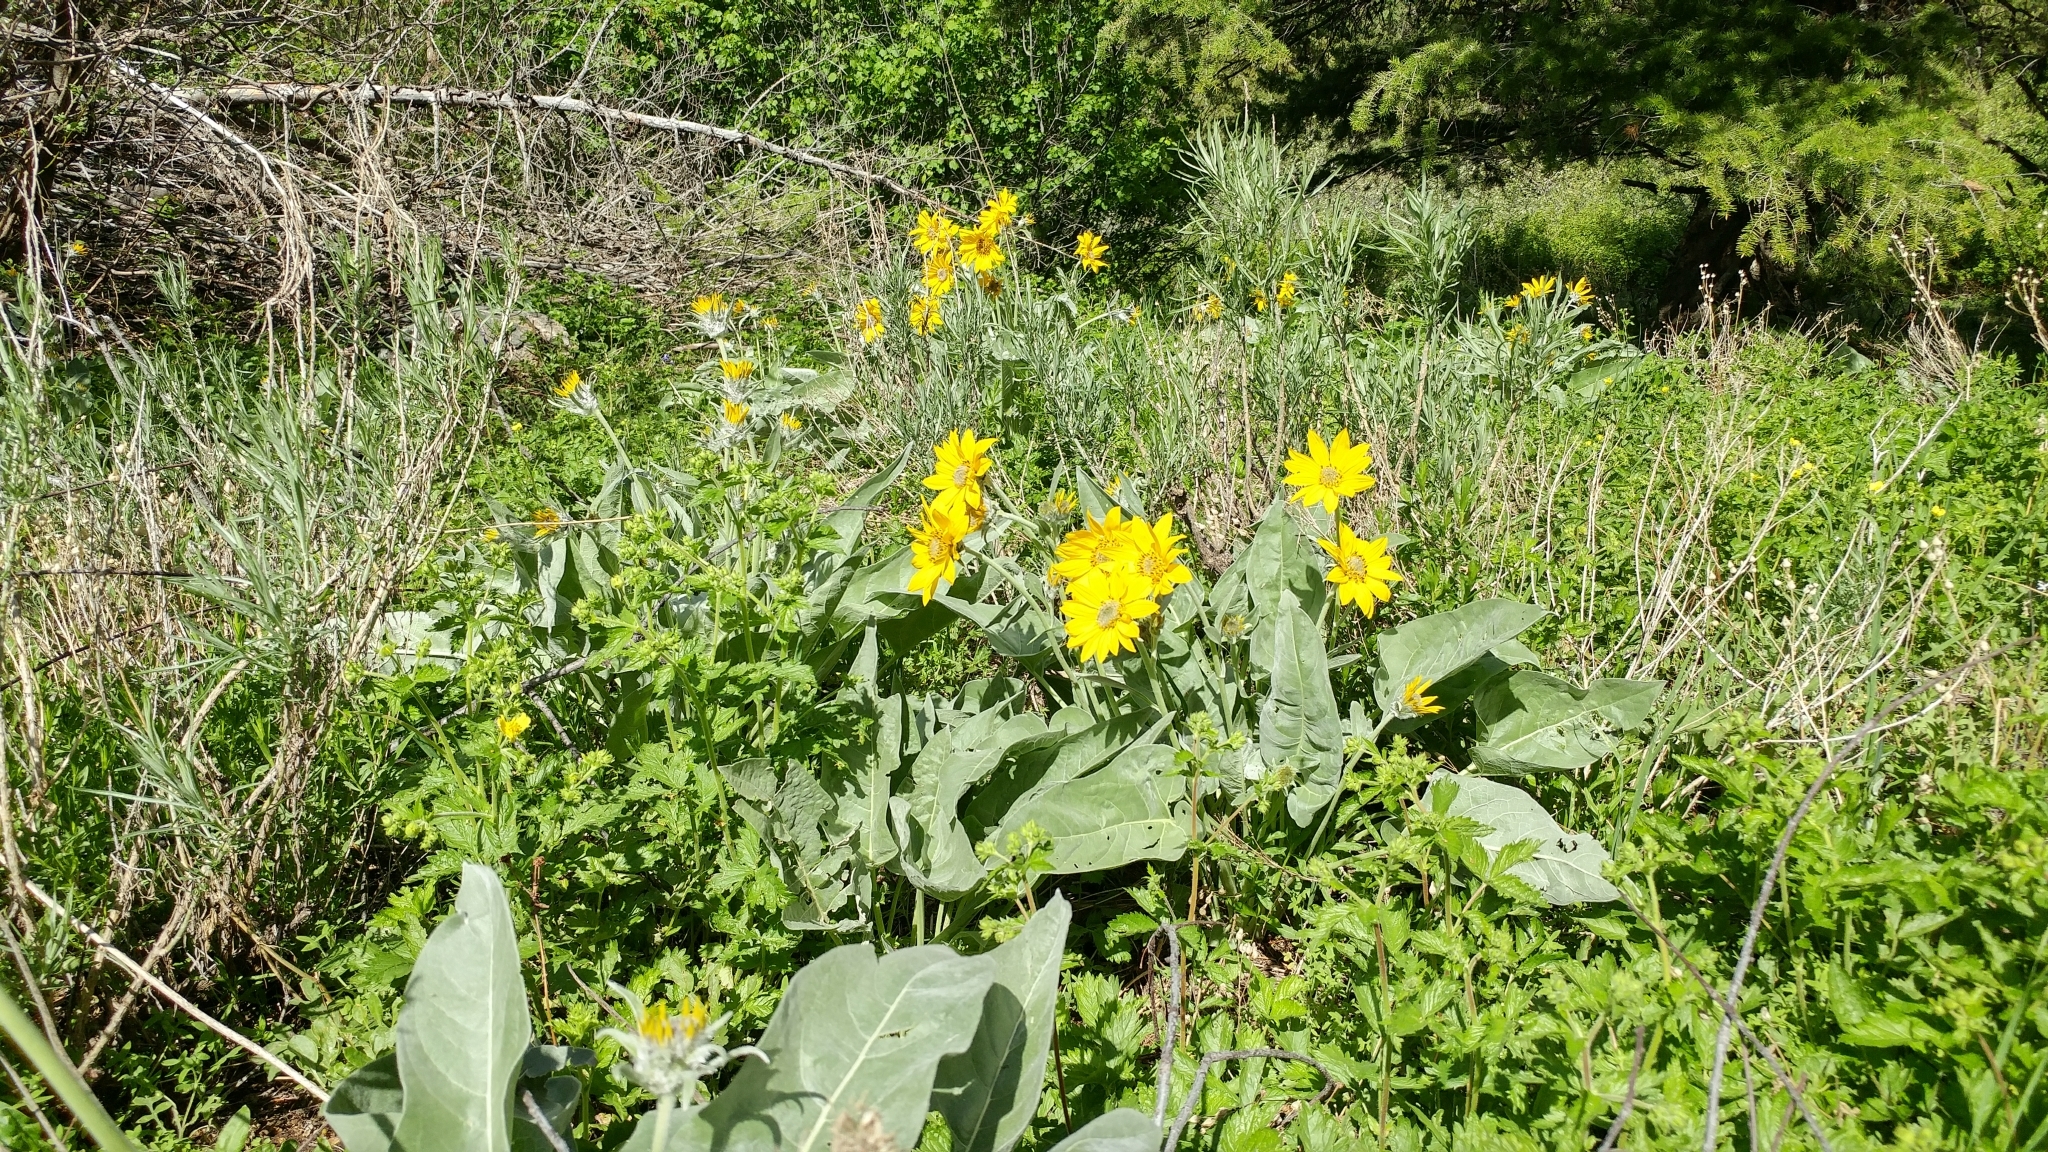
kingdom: Plantae
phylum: Tracheophyta
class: Magnoliopsida
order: Asterales
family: Asteraceae
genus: Wyethia
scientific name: Wyethia sagittata
